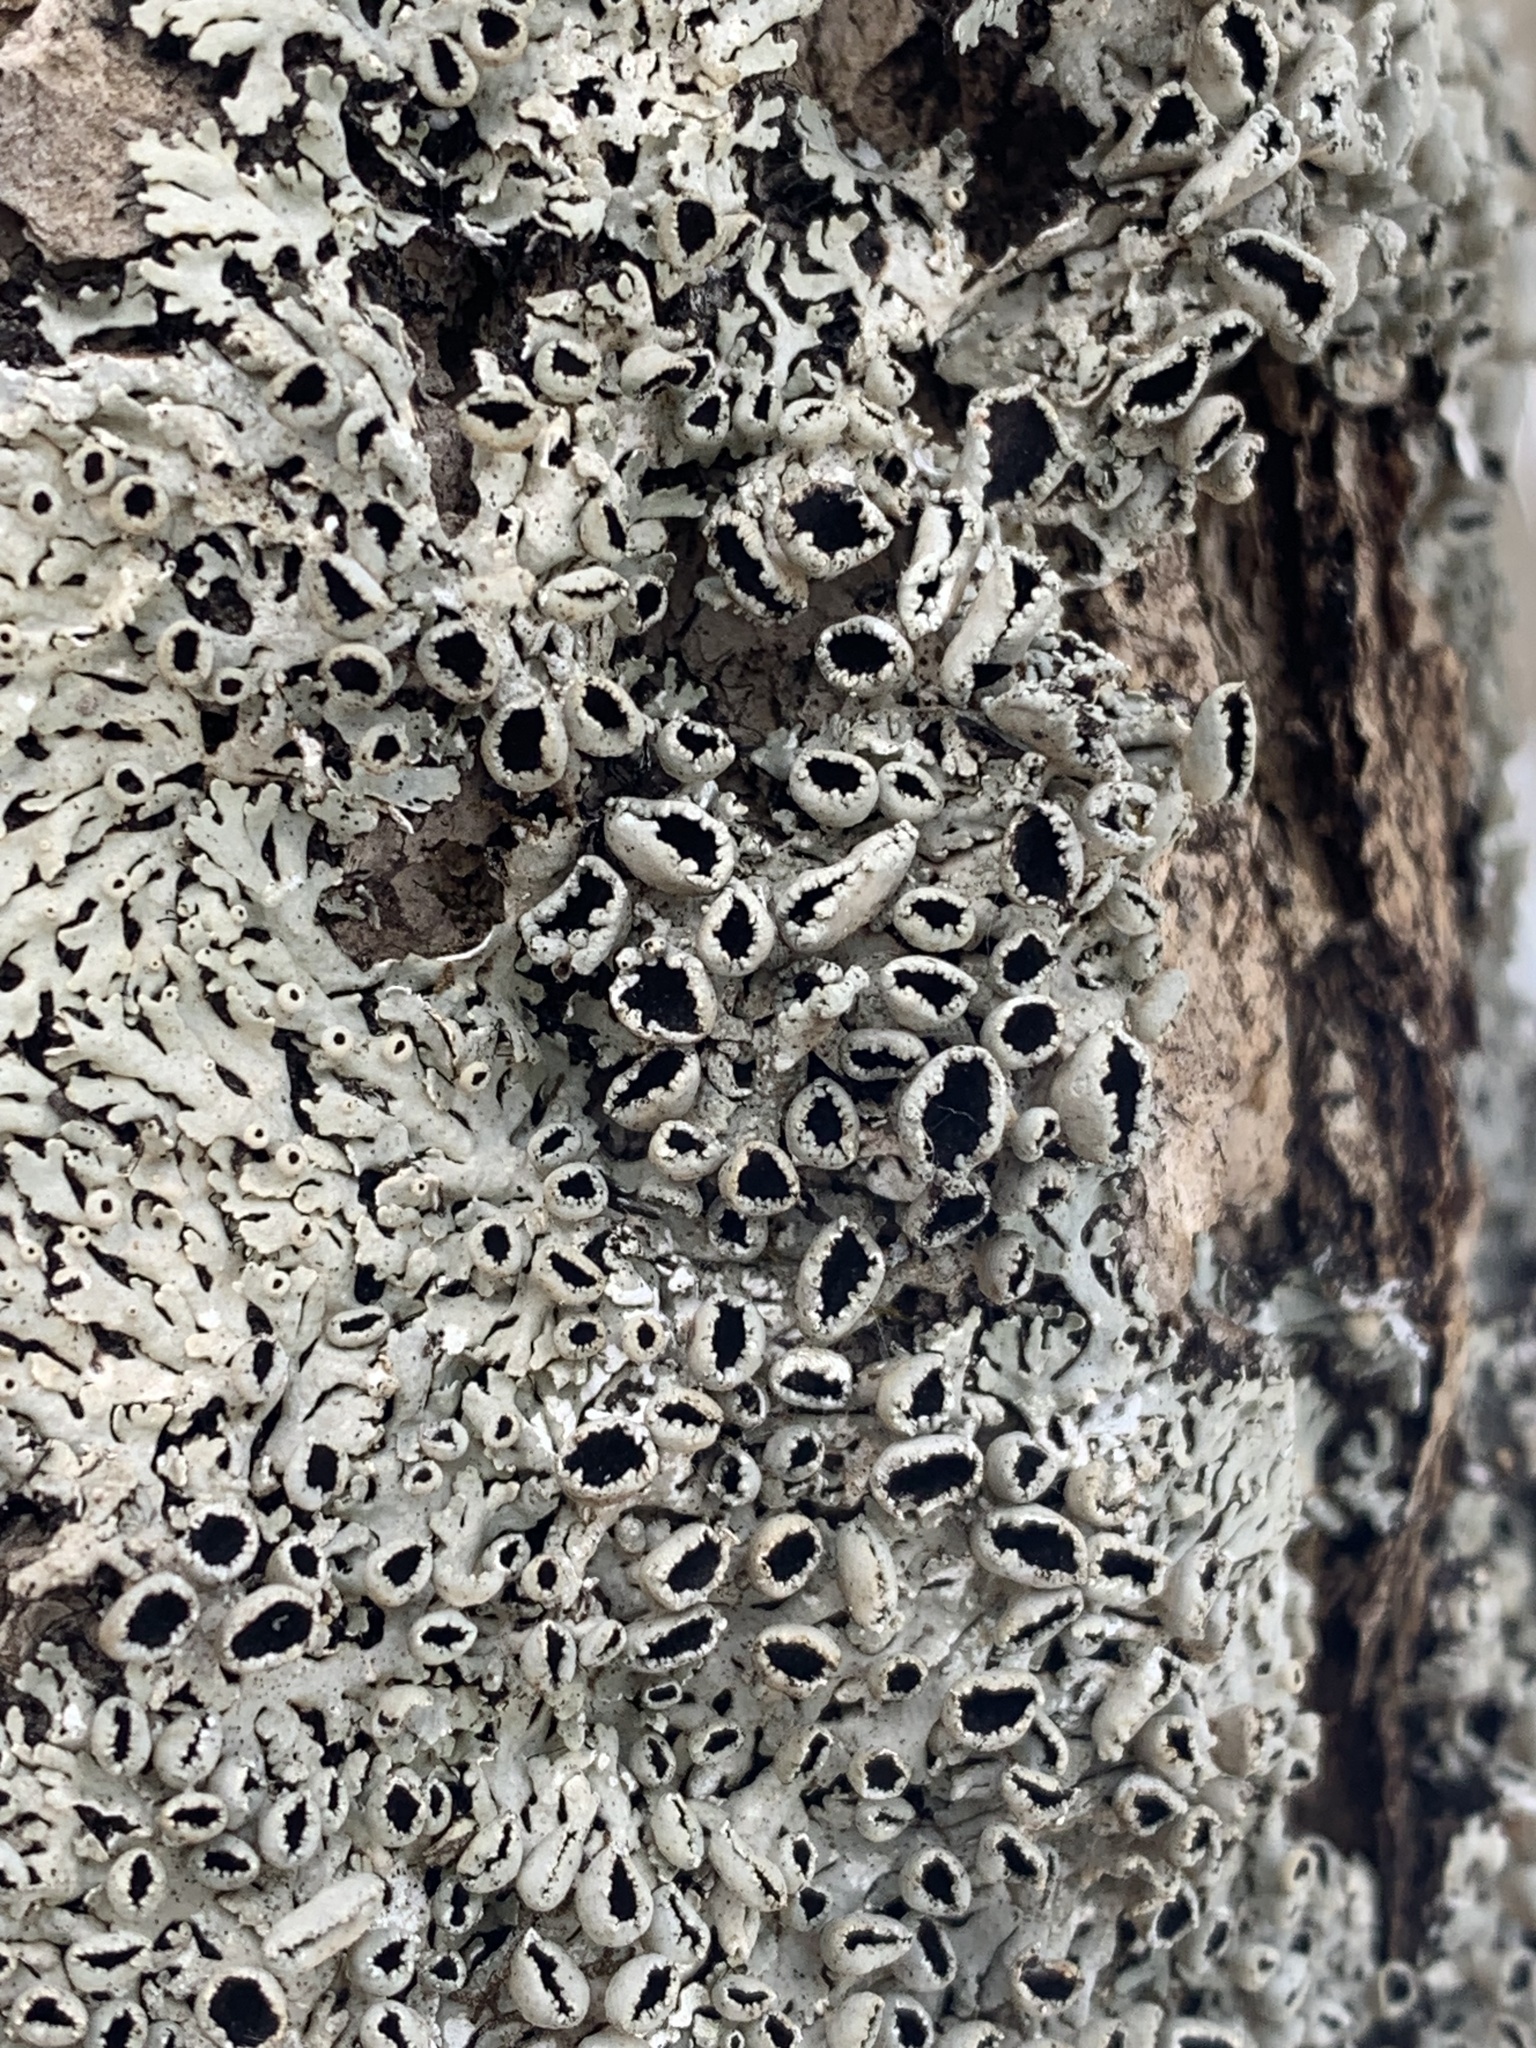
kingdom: Fungi
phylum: Ascomycota
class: Lecanoromycetes
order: Caliciales
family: Physciaceae
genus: Polyblastidium
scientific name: Polyblastidium hypoleucum
